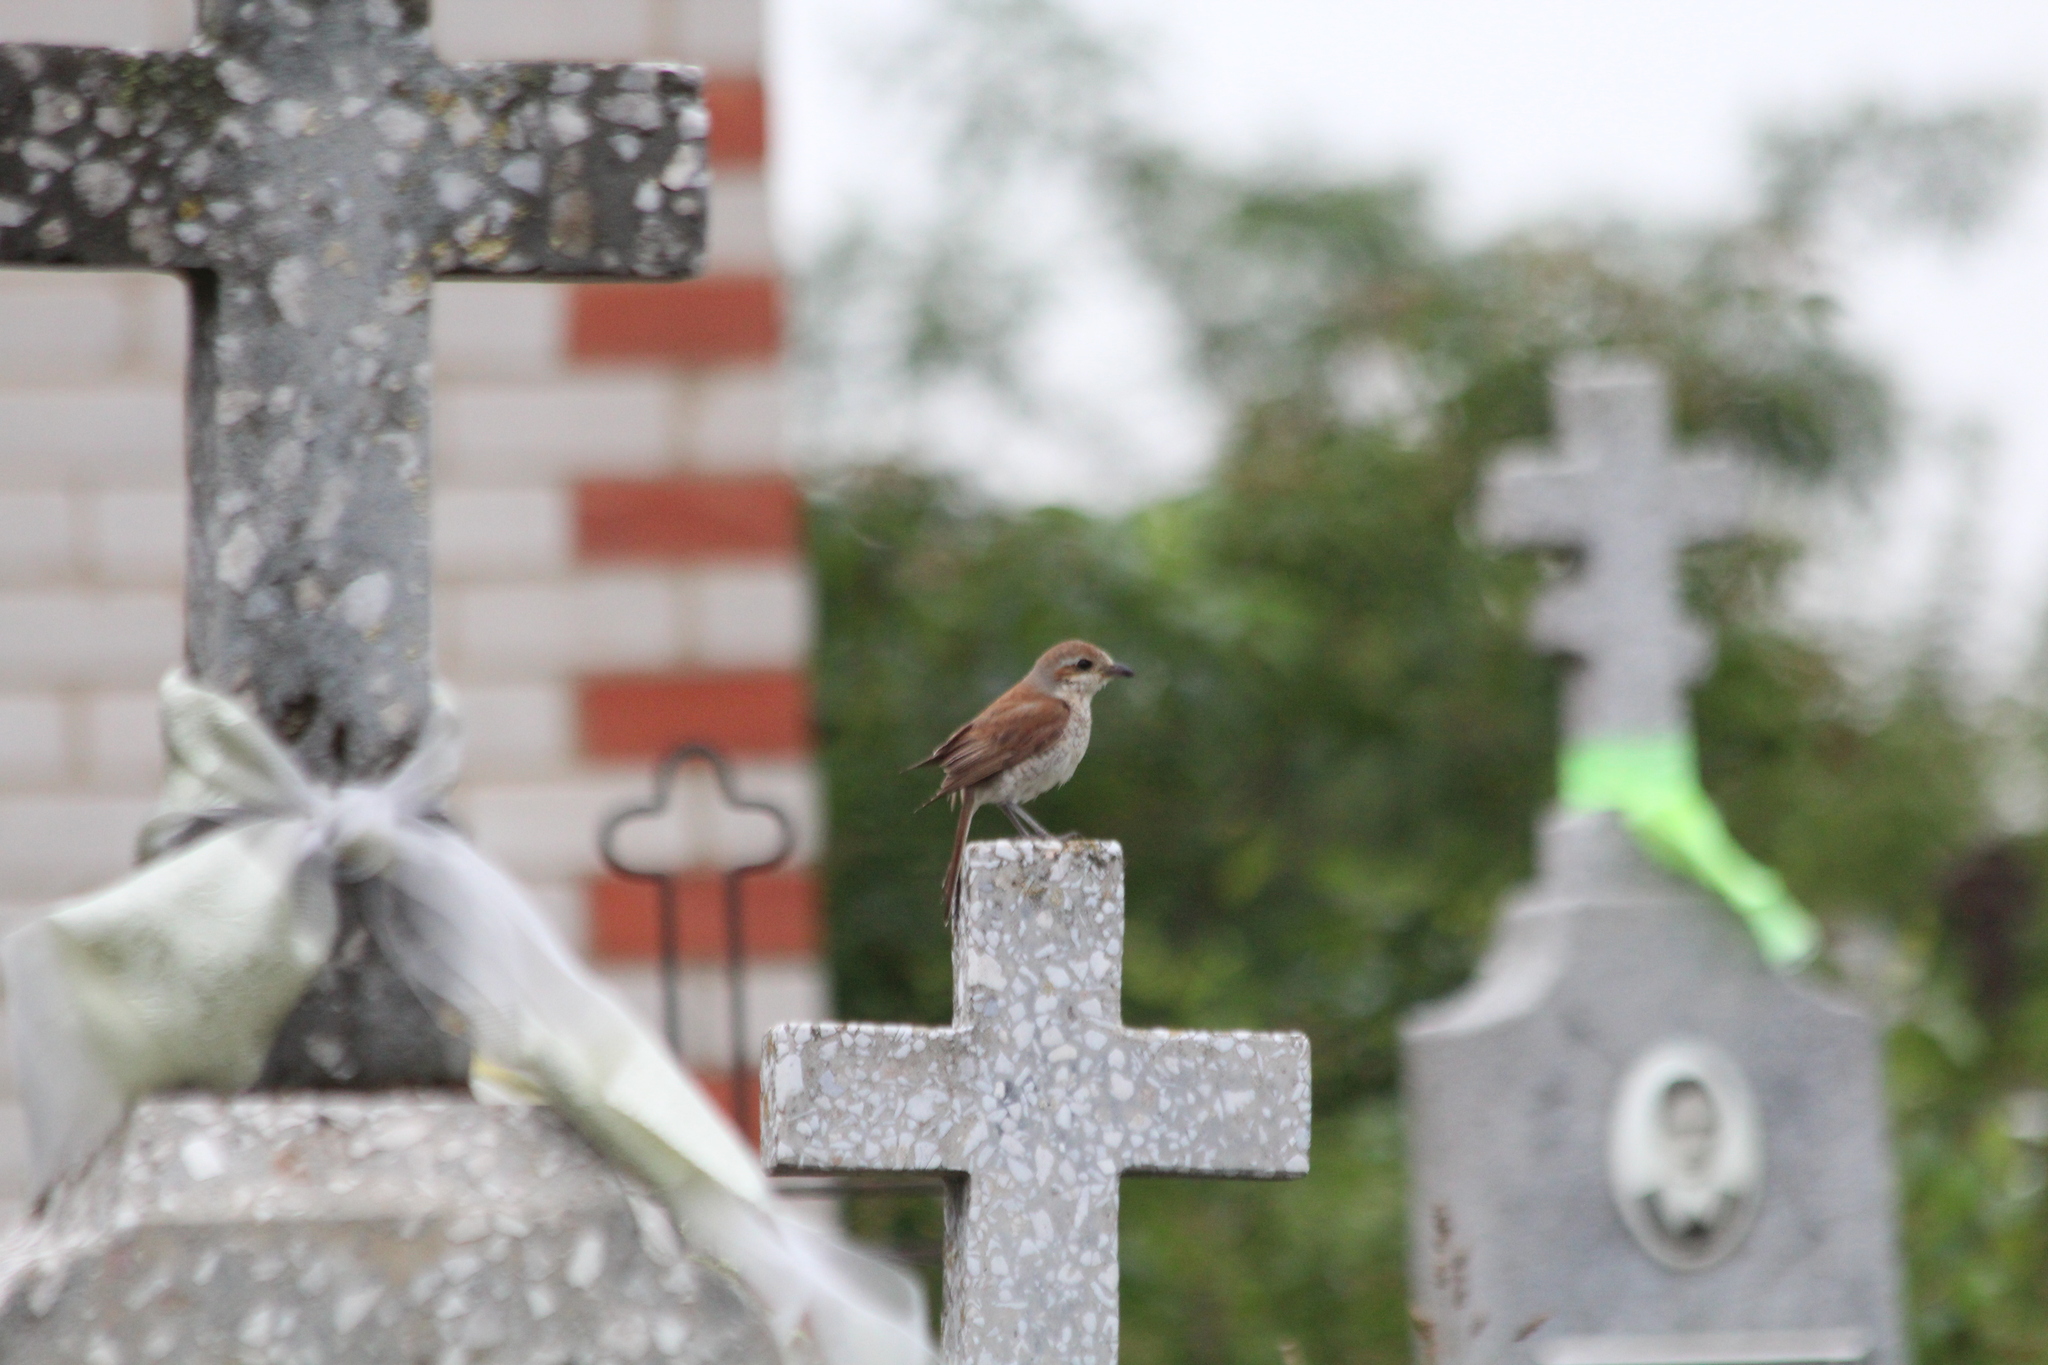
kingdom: Animalia
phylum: Chordata
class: Aves
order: Passeriformes
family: Laniidae
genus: Lanius
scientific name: Lanius collurio
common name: Red-backed shrike
